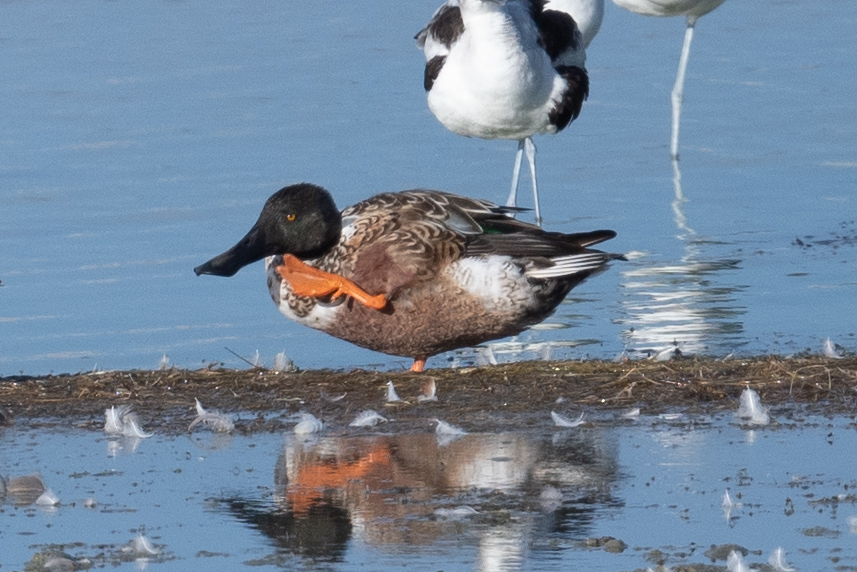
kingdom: Animalia
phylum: Chordata
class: Aves
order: Anseriformes
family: Anatidae
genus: Spatula
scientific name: Spatula clypeata
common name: Northern shoveler
